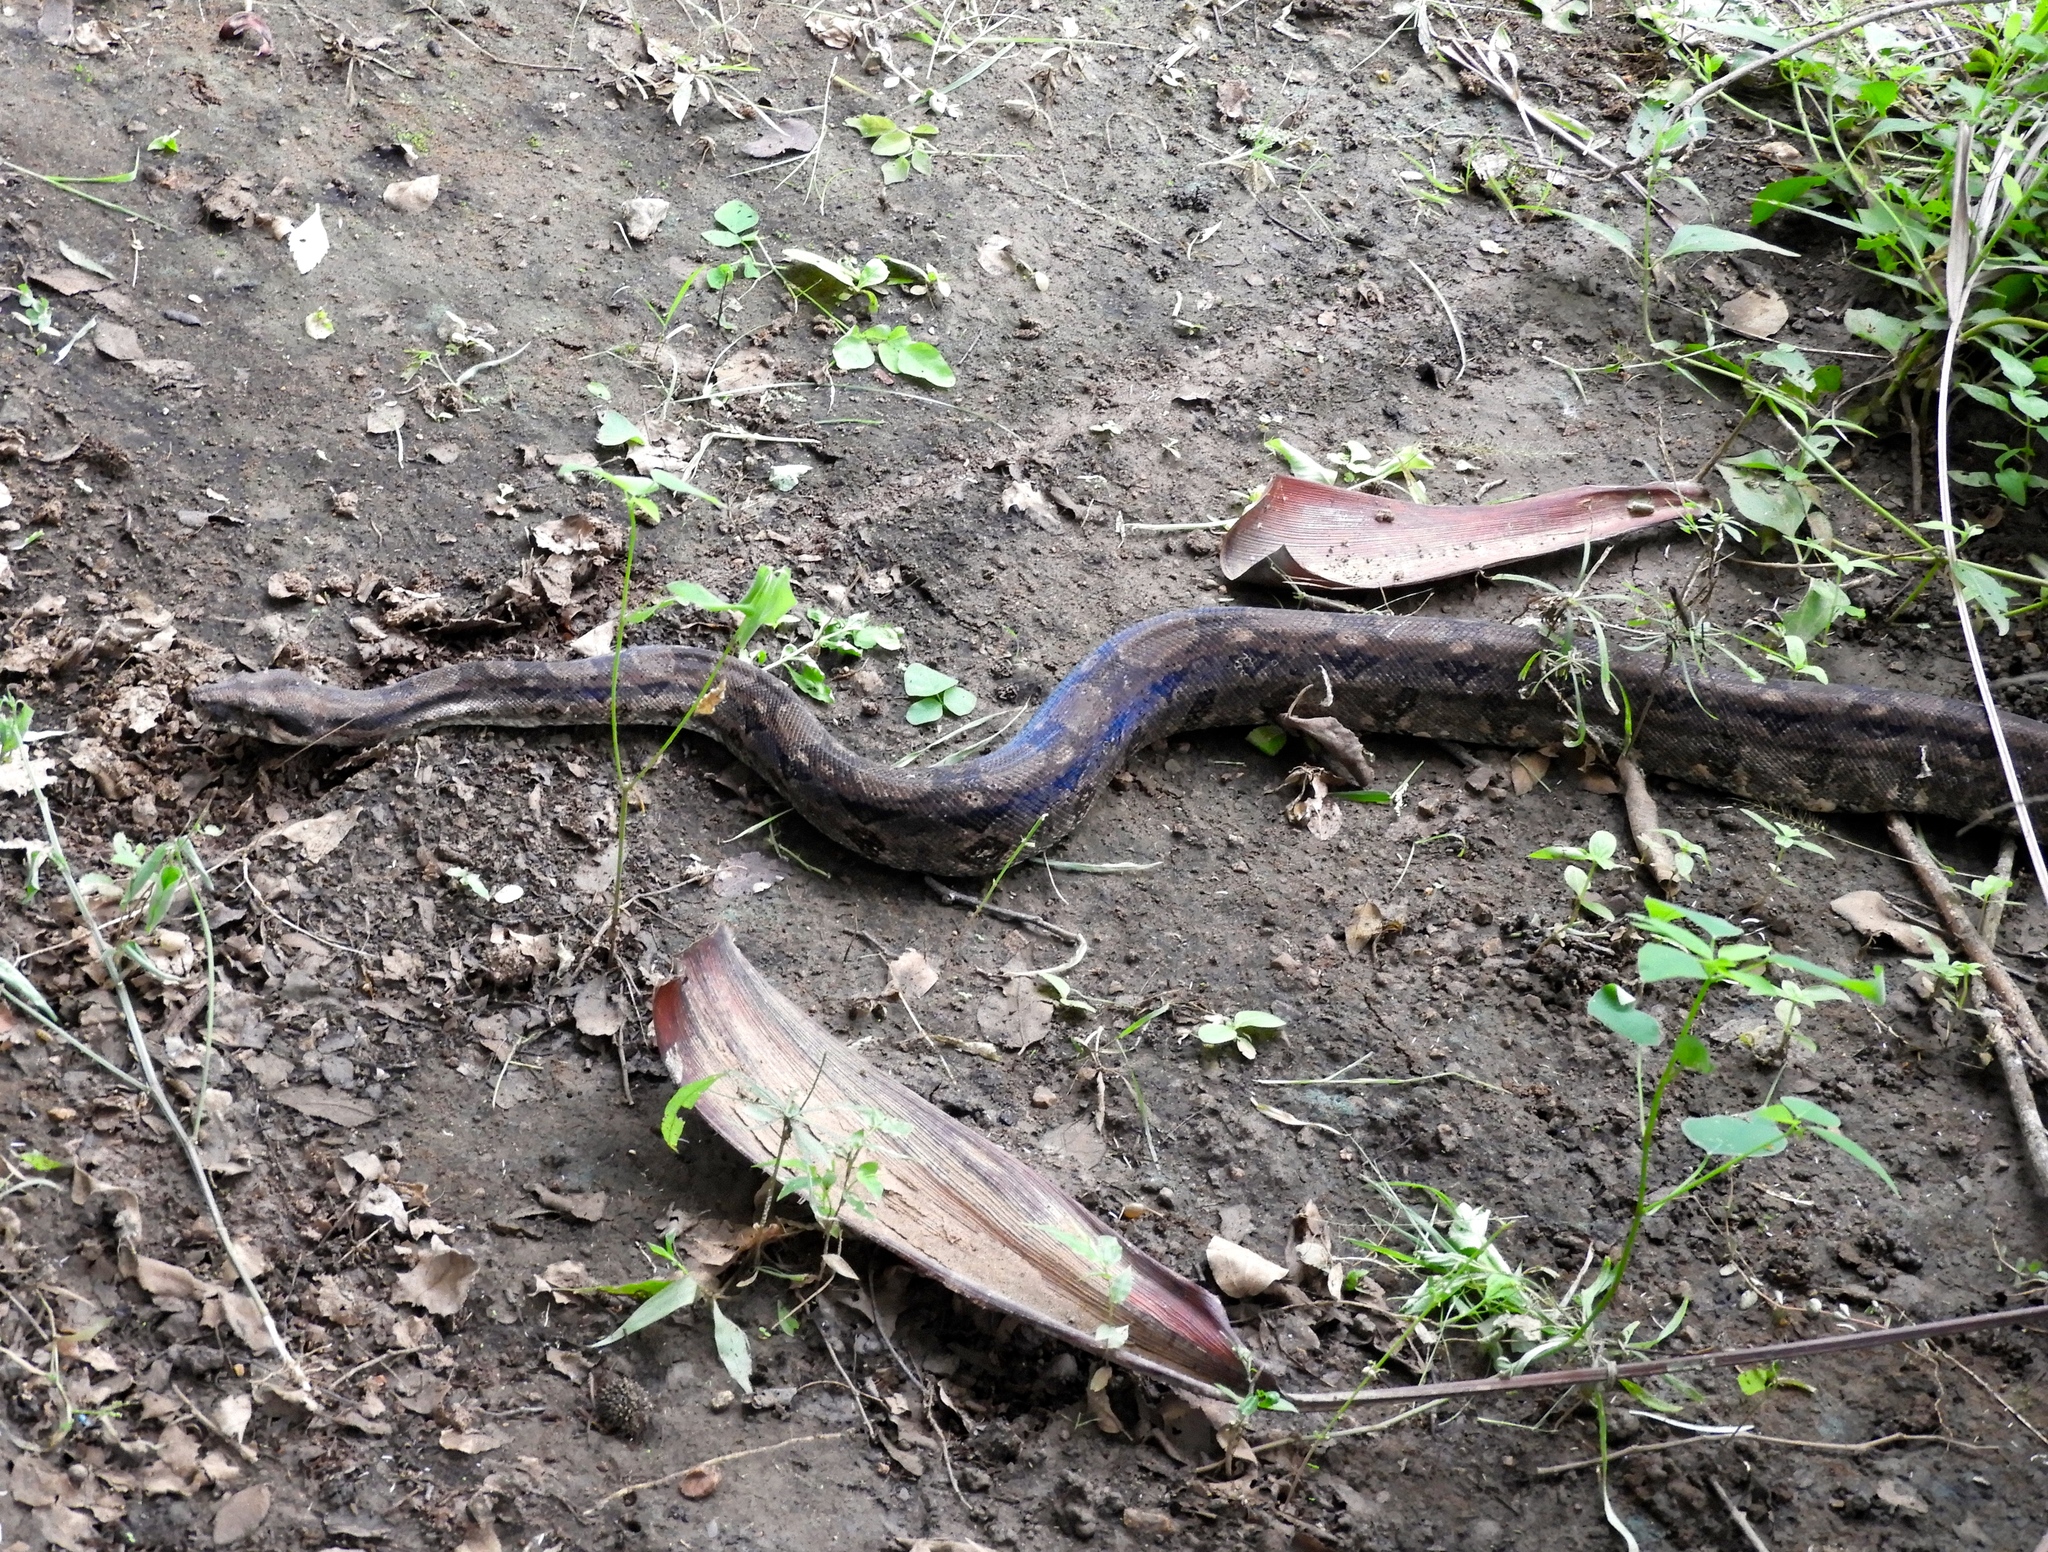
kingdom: Animalia
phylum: Chordata
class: Squamata
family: Boidae
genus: Boa
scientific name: Boa
